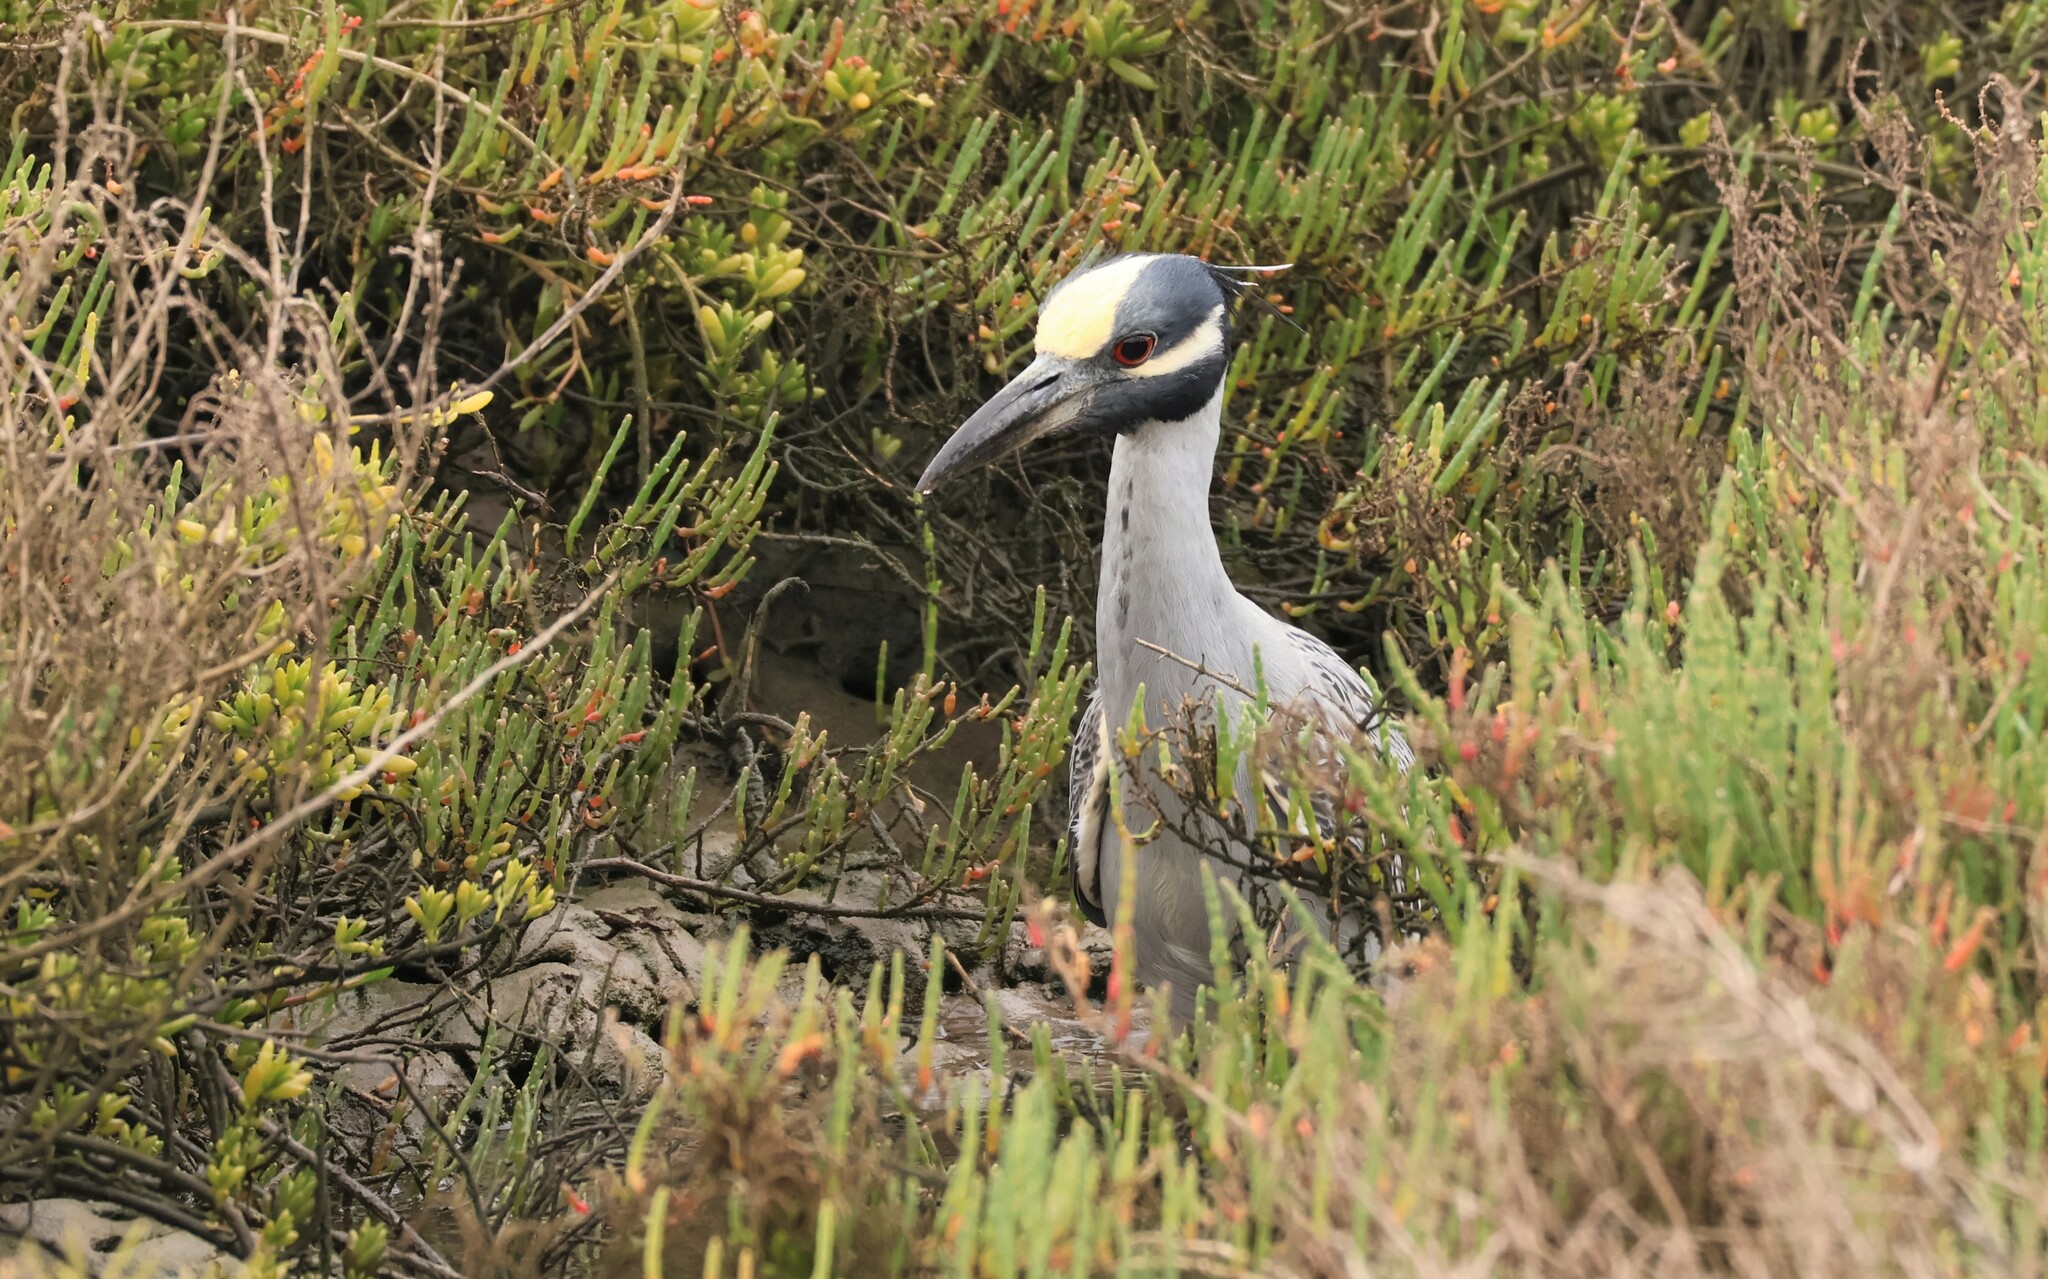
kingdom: Animalia
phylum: Chordata
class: Aves
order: Pelecaniformes
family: Ardeidae
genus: Nyctanassa
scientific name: Nyctanassa violacea
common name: Yellow-crowned night heron
